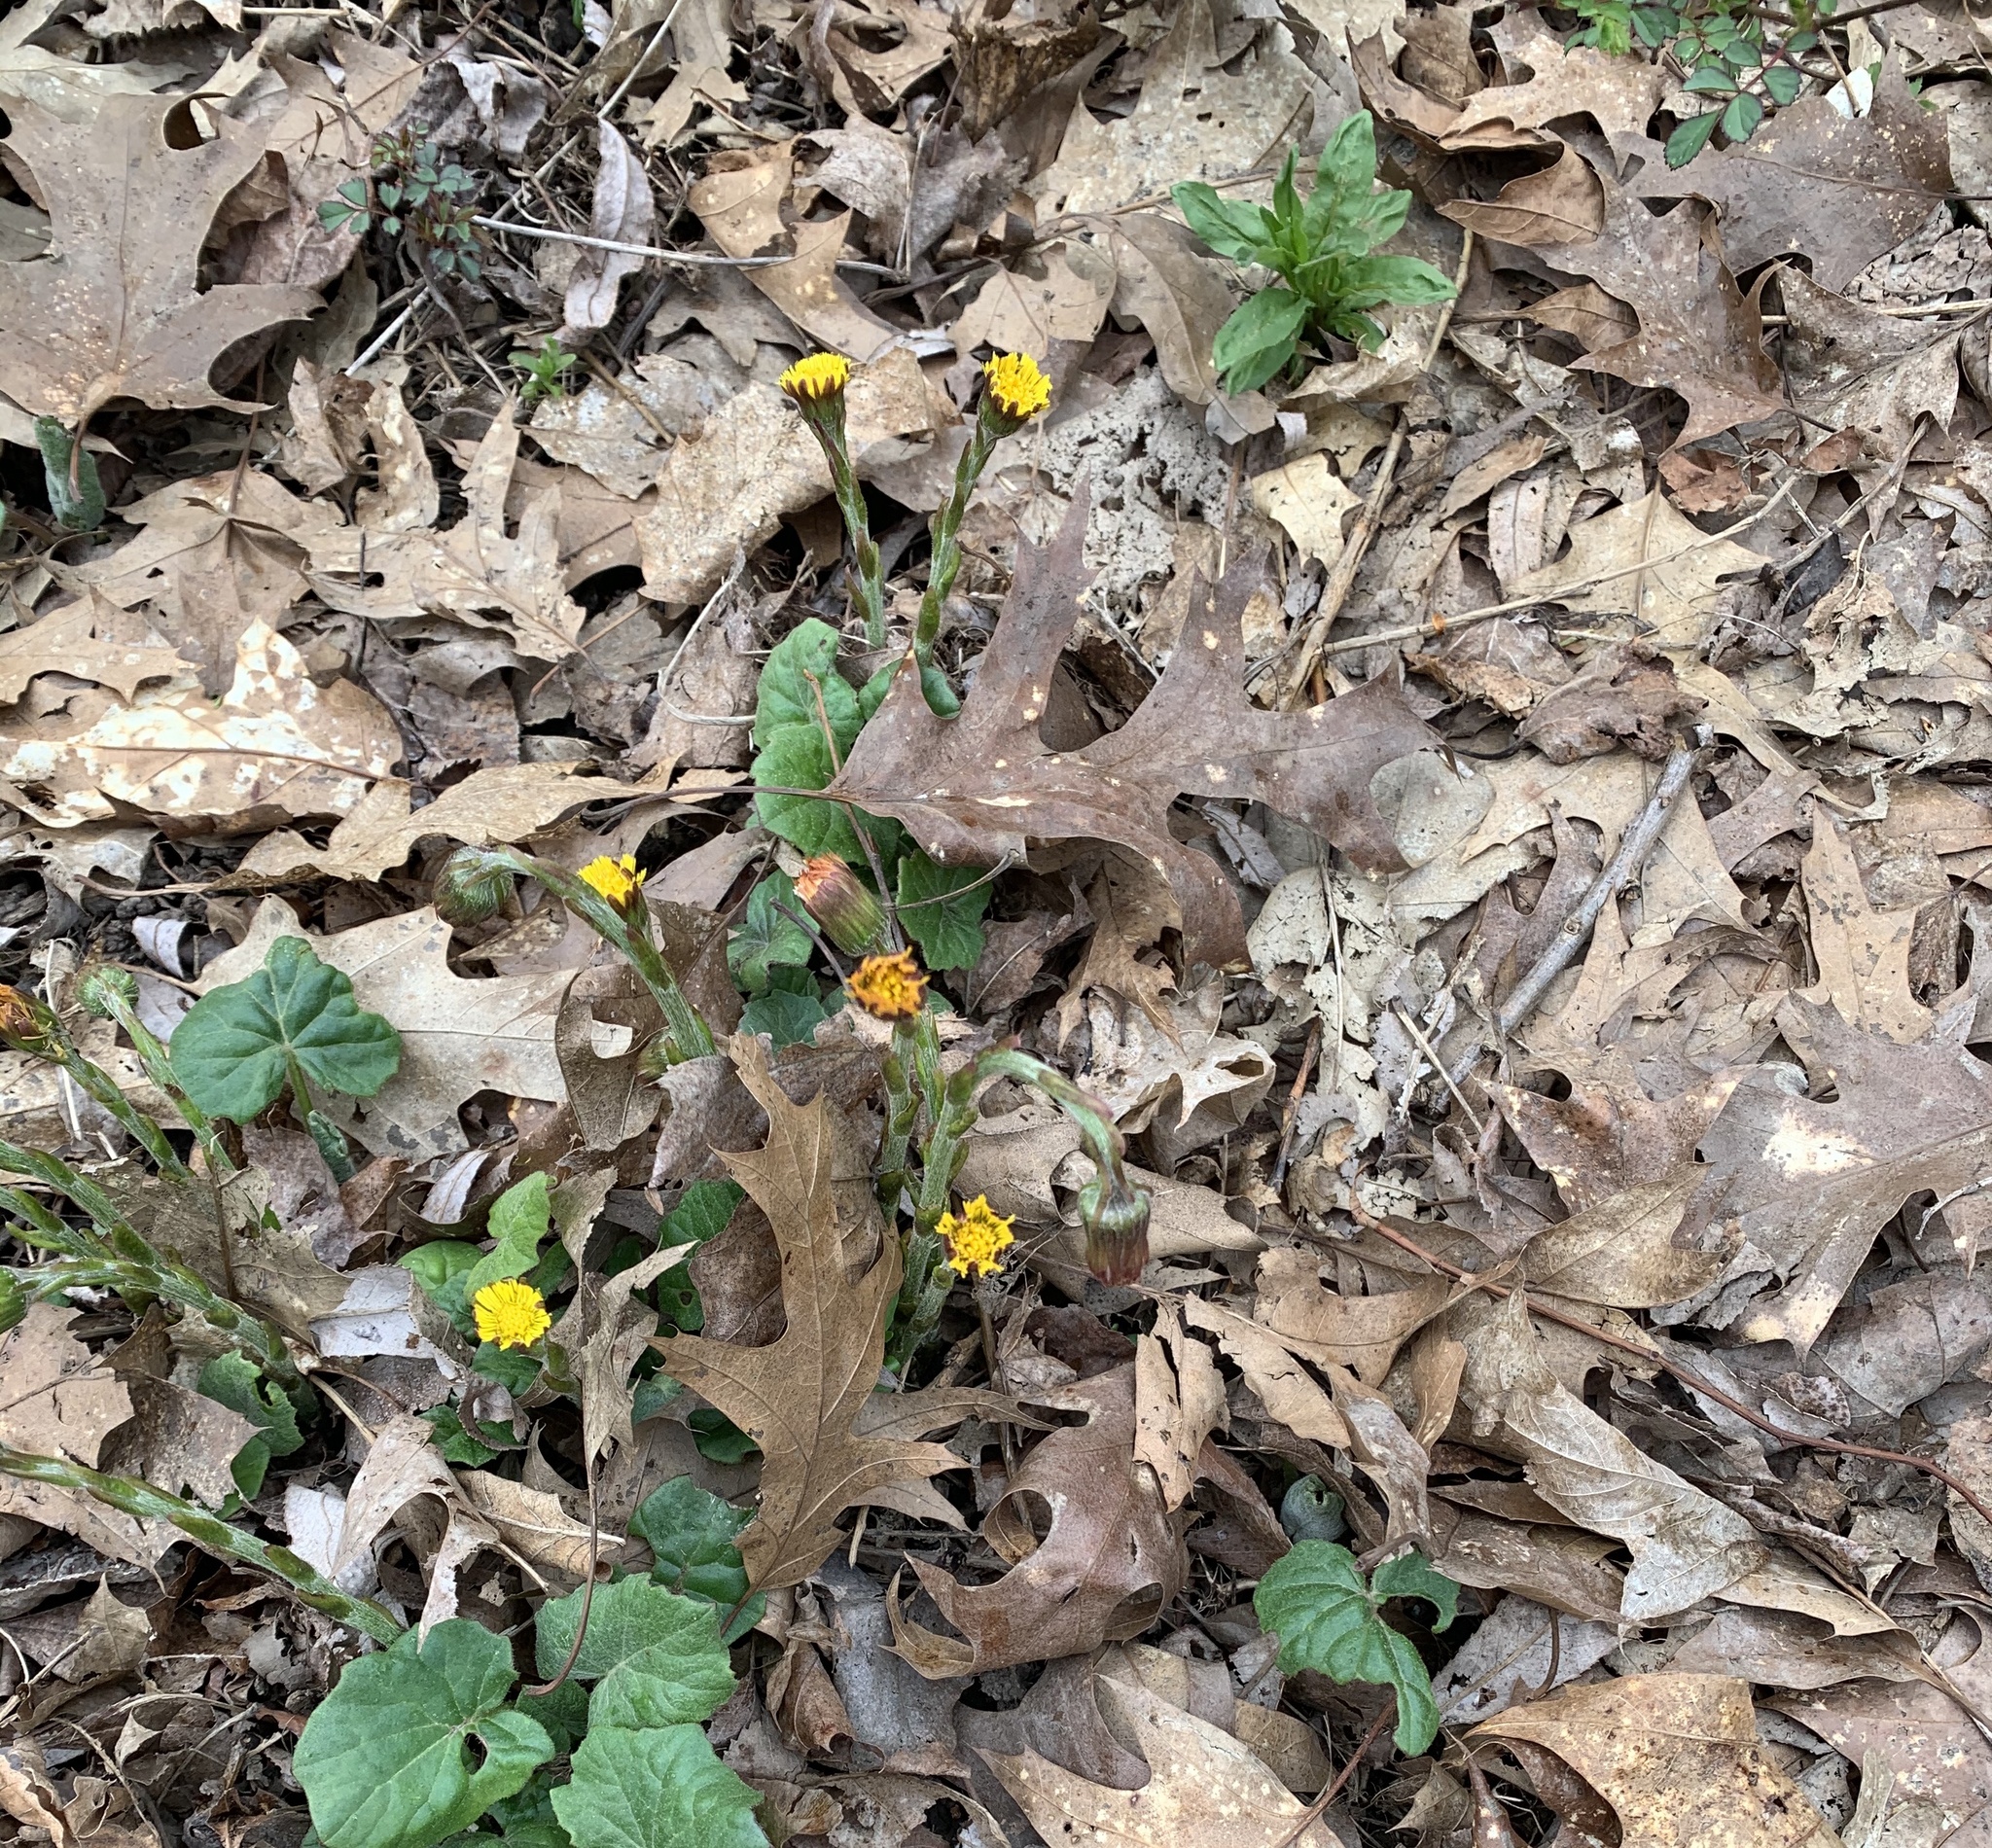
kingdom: Plantae
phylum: Tracheophyta
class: Magnoliopsida
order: Asterales
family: Asteraceae
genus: Tussilago
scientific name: Tussilago farfara
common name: Coltsfoot
